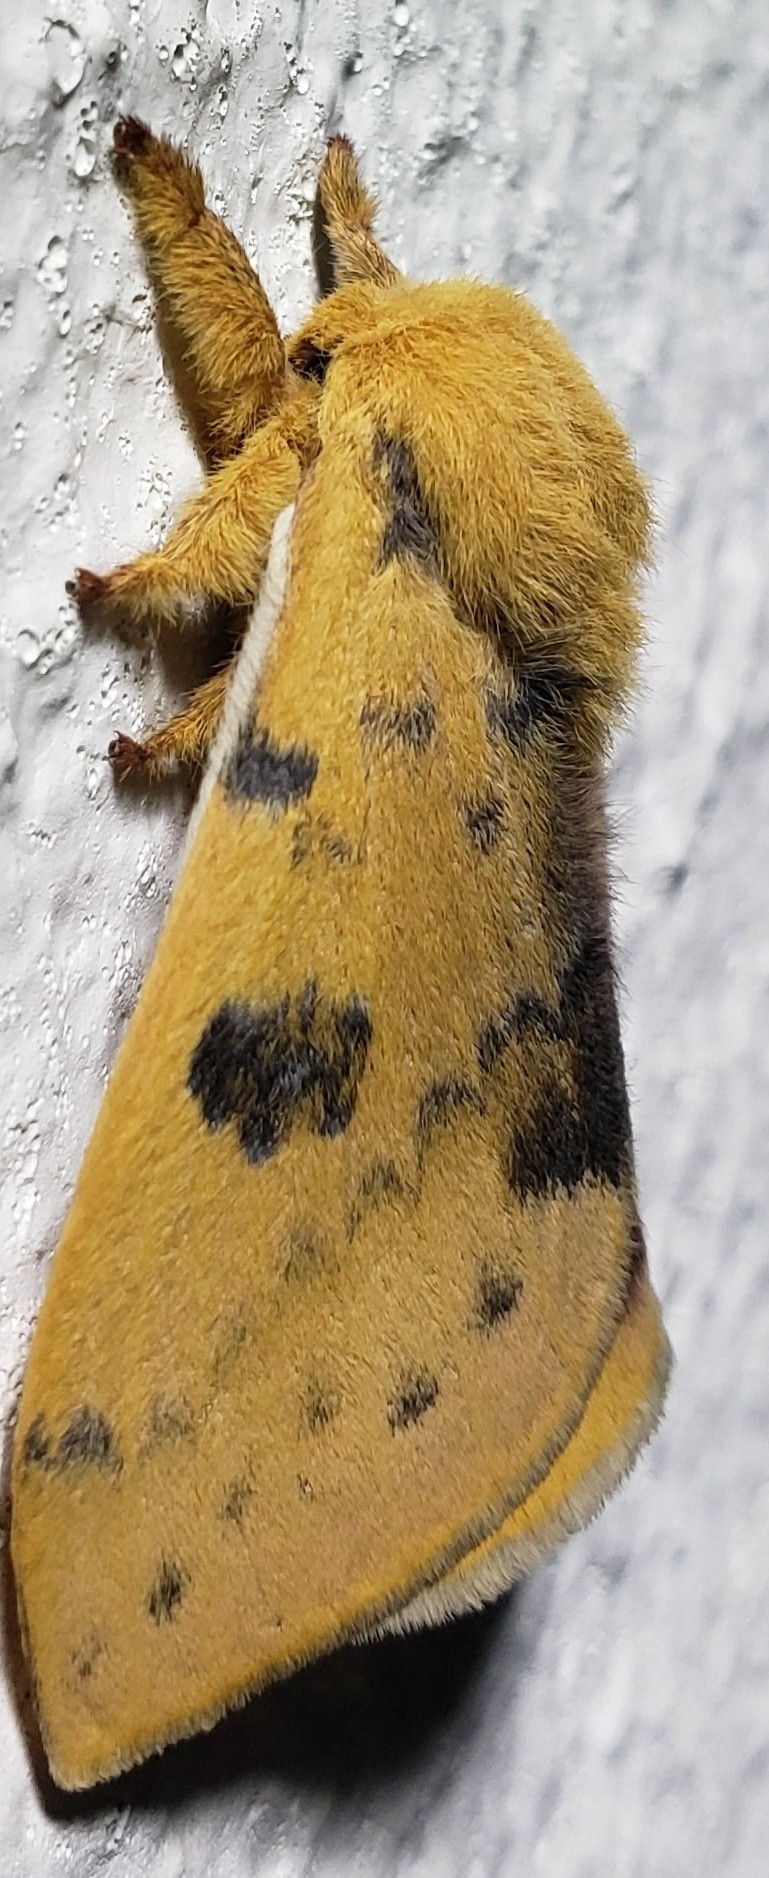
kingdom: Animalia
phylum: Arthropoda
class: Insecta
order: Lepidoptera
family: Saturniidae
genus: Automeris
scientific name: Automeris io
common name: Io moth
